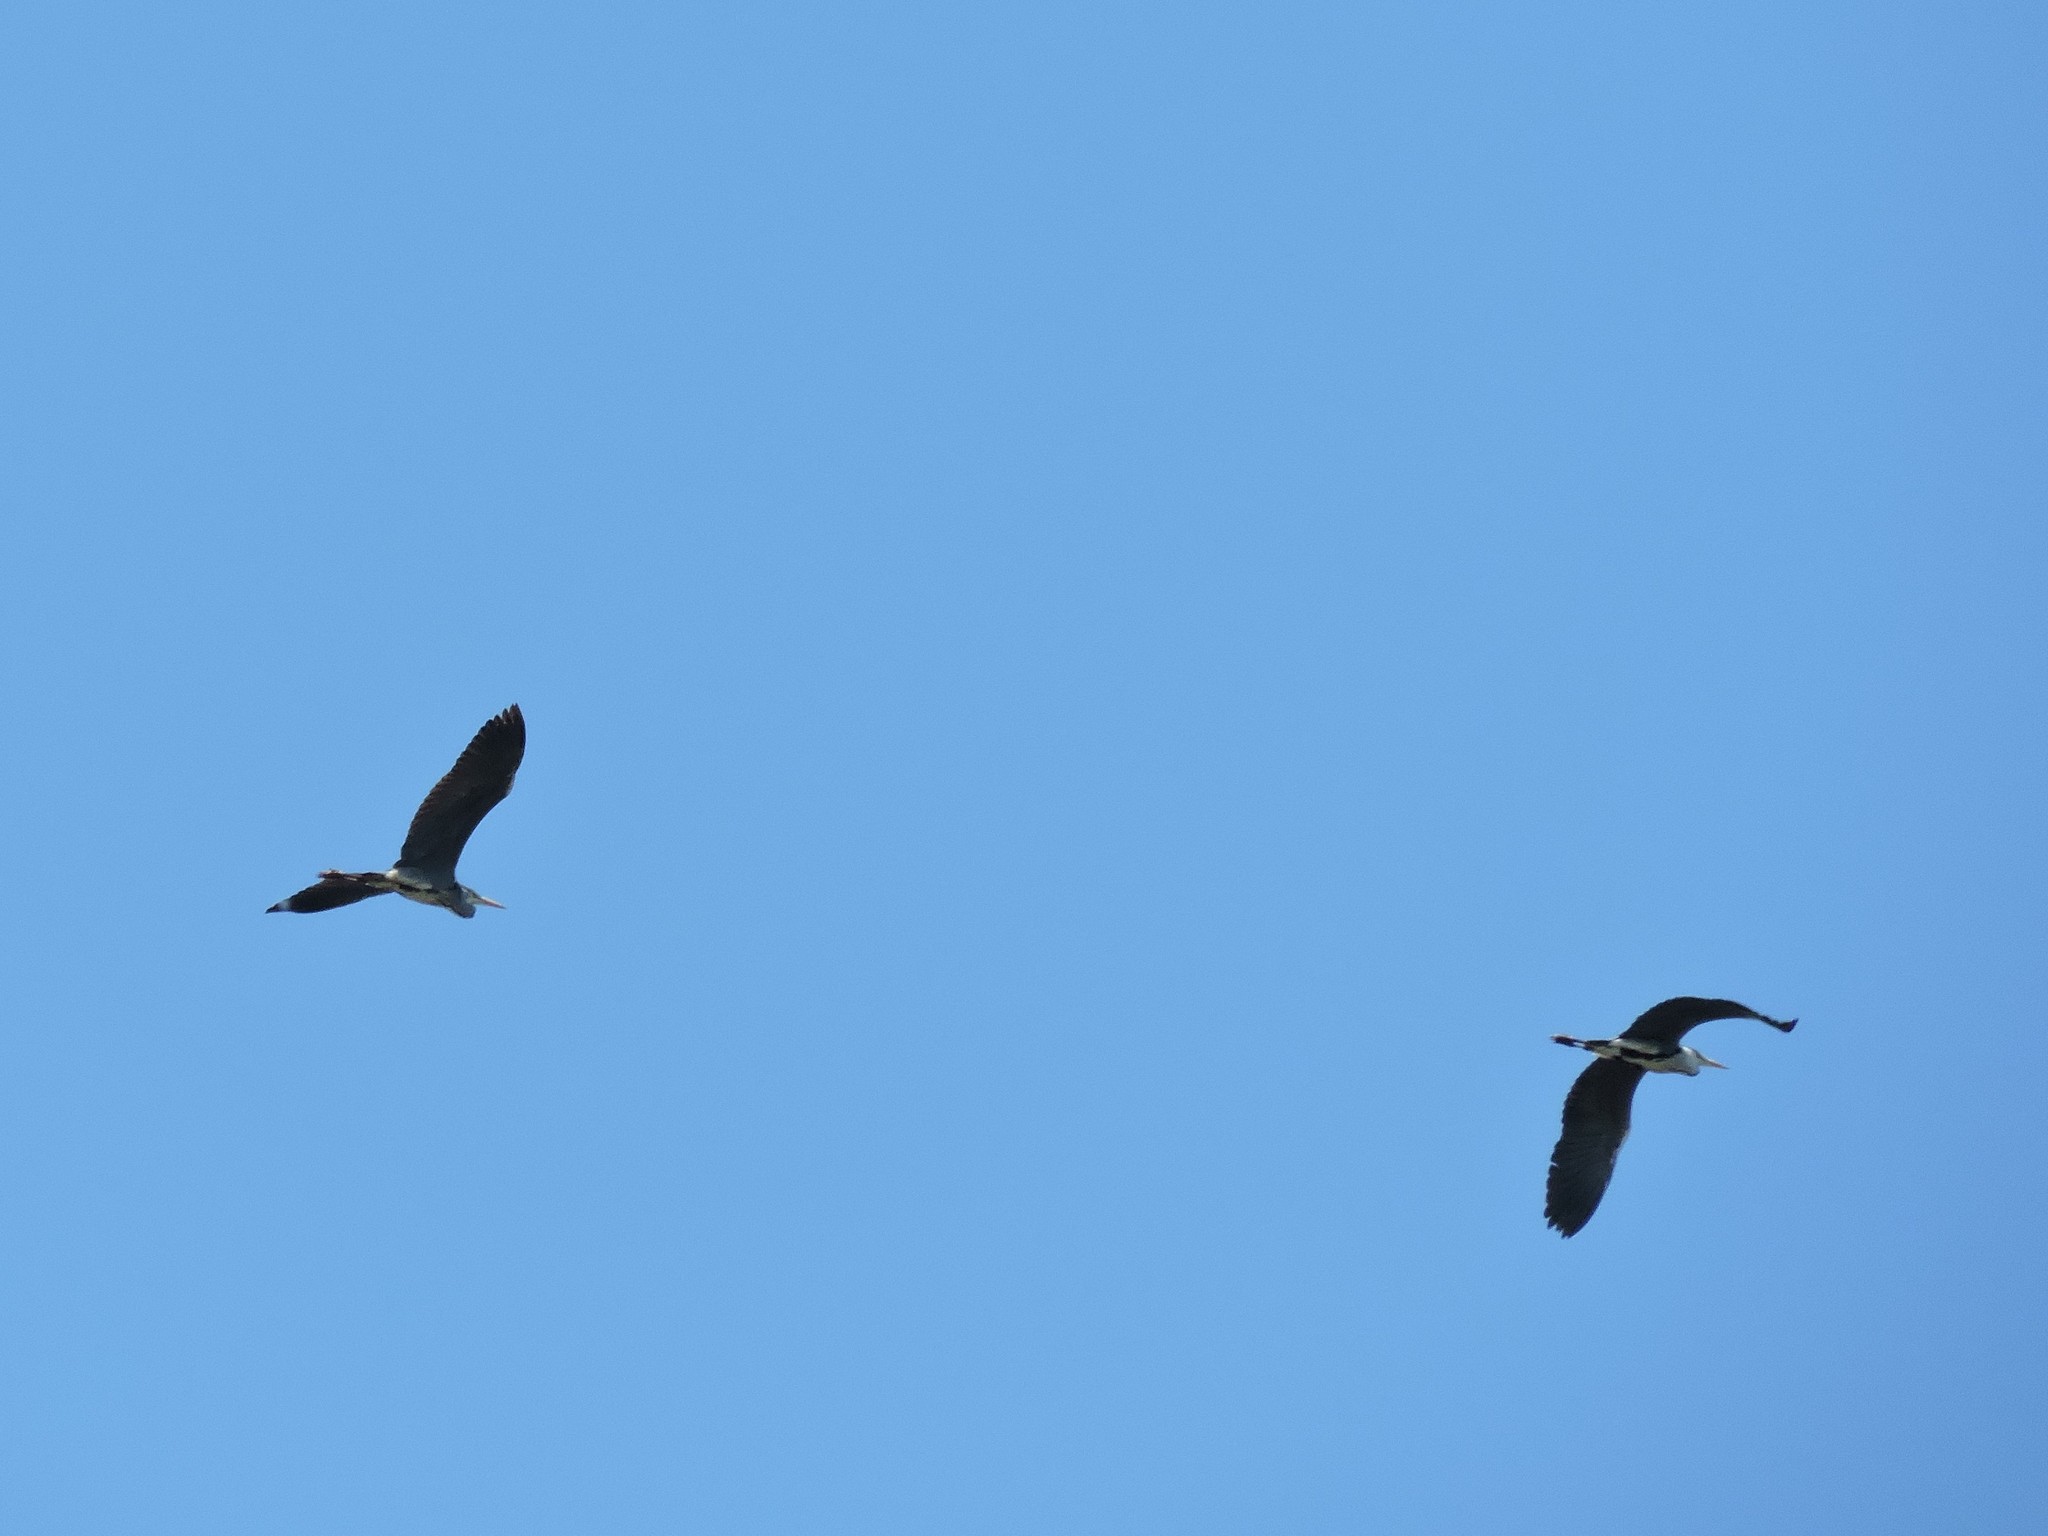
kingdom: Animalia
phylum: Chordata
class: Aves
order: Pelecaniformes
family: Ardeidae
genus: Ardea
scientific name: Ardea cinerea
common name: Grey heron
